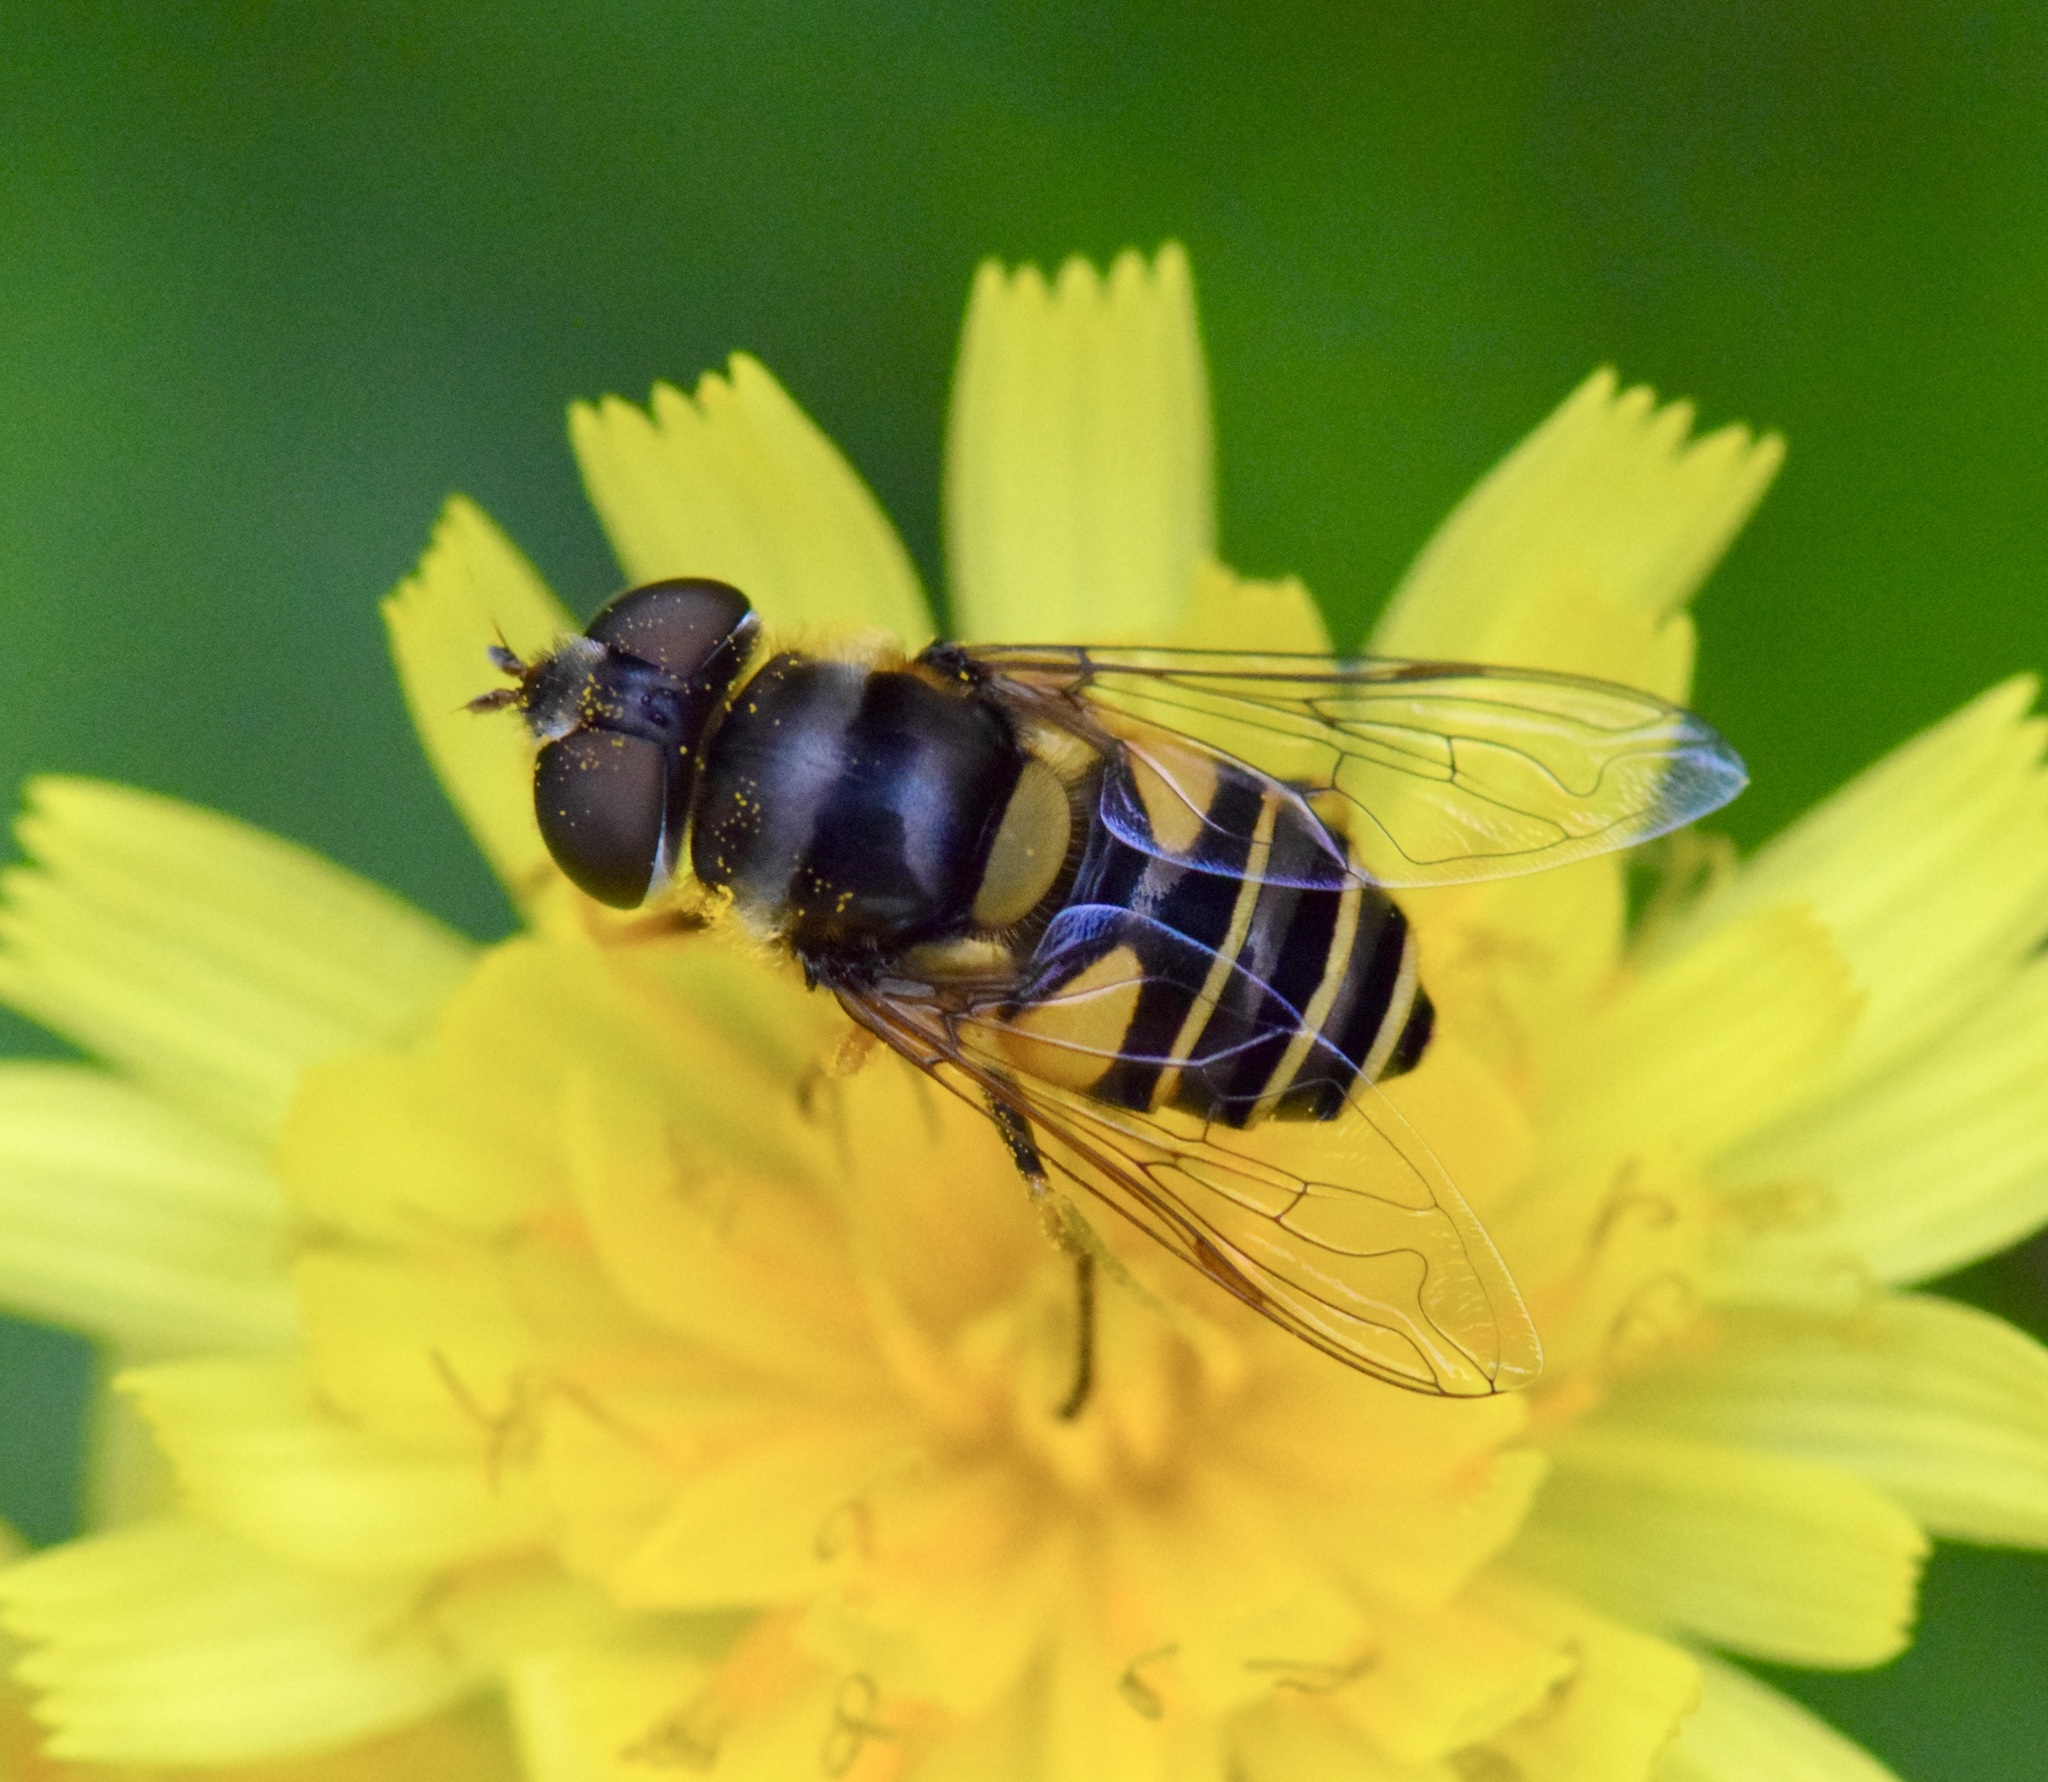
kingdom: Animalia
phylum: Arthropoda
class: Insecta
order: Diptera
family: Syrphidae
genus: Eristalis
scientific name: Eristalis transversa
